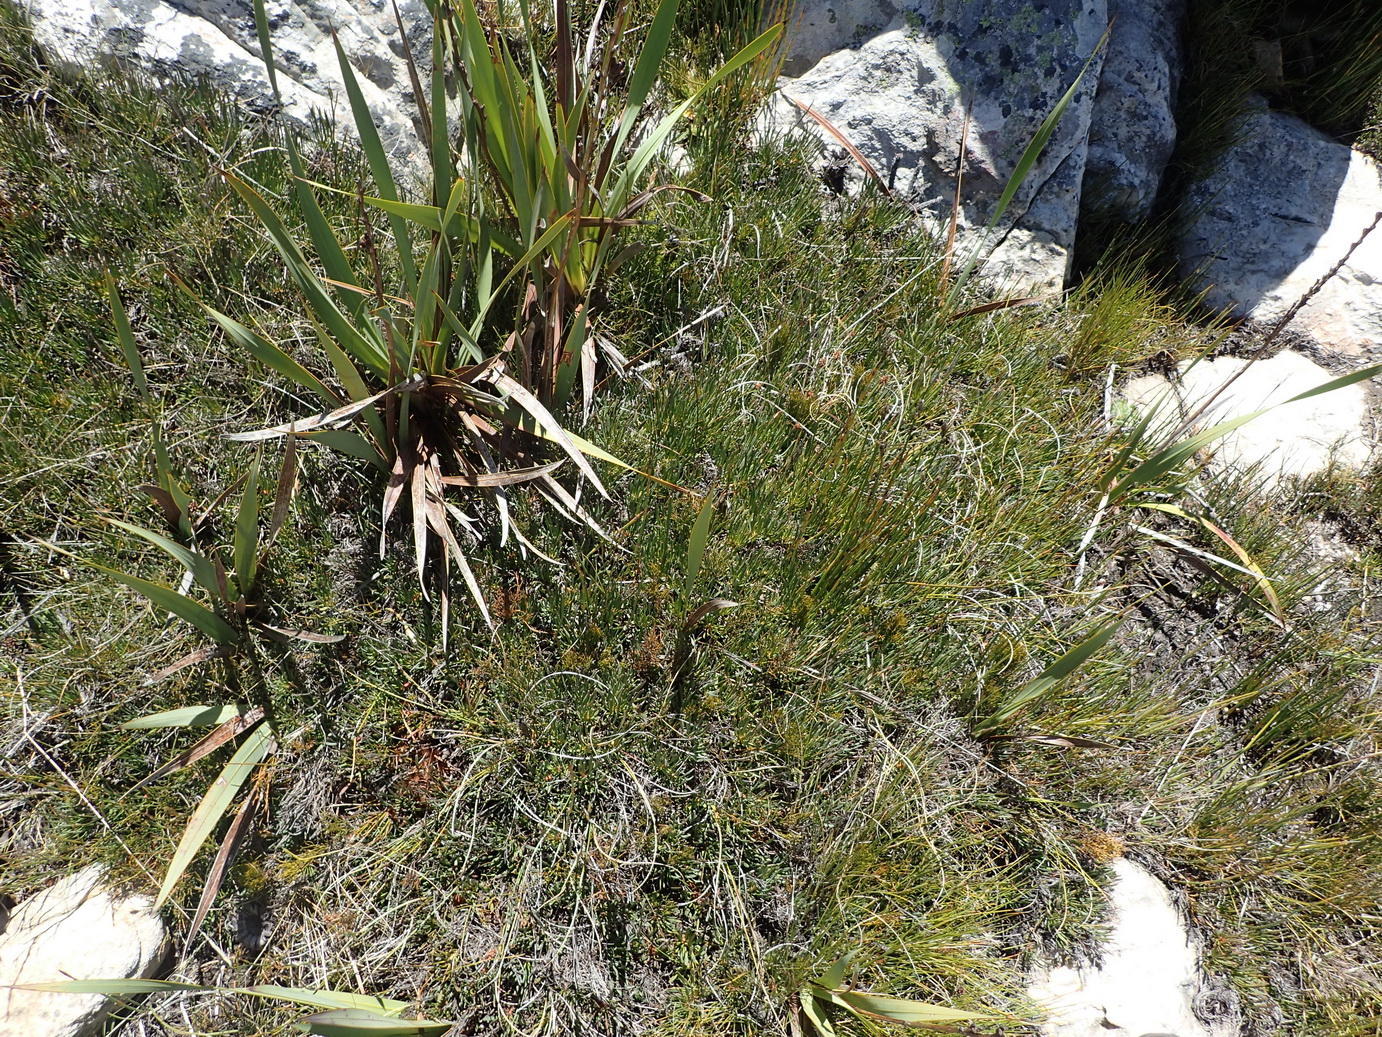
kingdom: Plantae
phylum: Tracheophyta
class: Magnoliopsida
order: Proteales
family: Proteaceae
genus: Protea
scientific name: Protea montana
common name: Swartberg sugarbush
